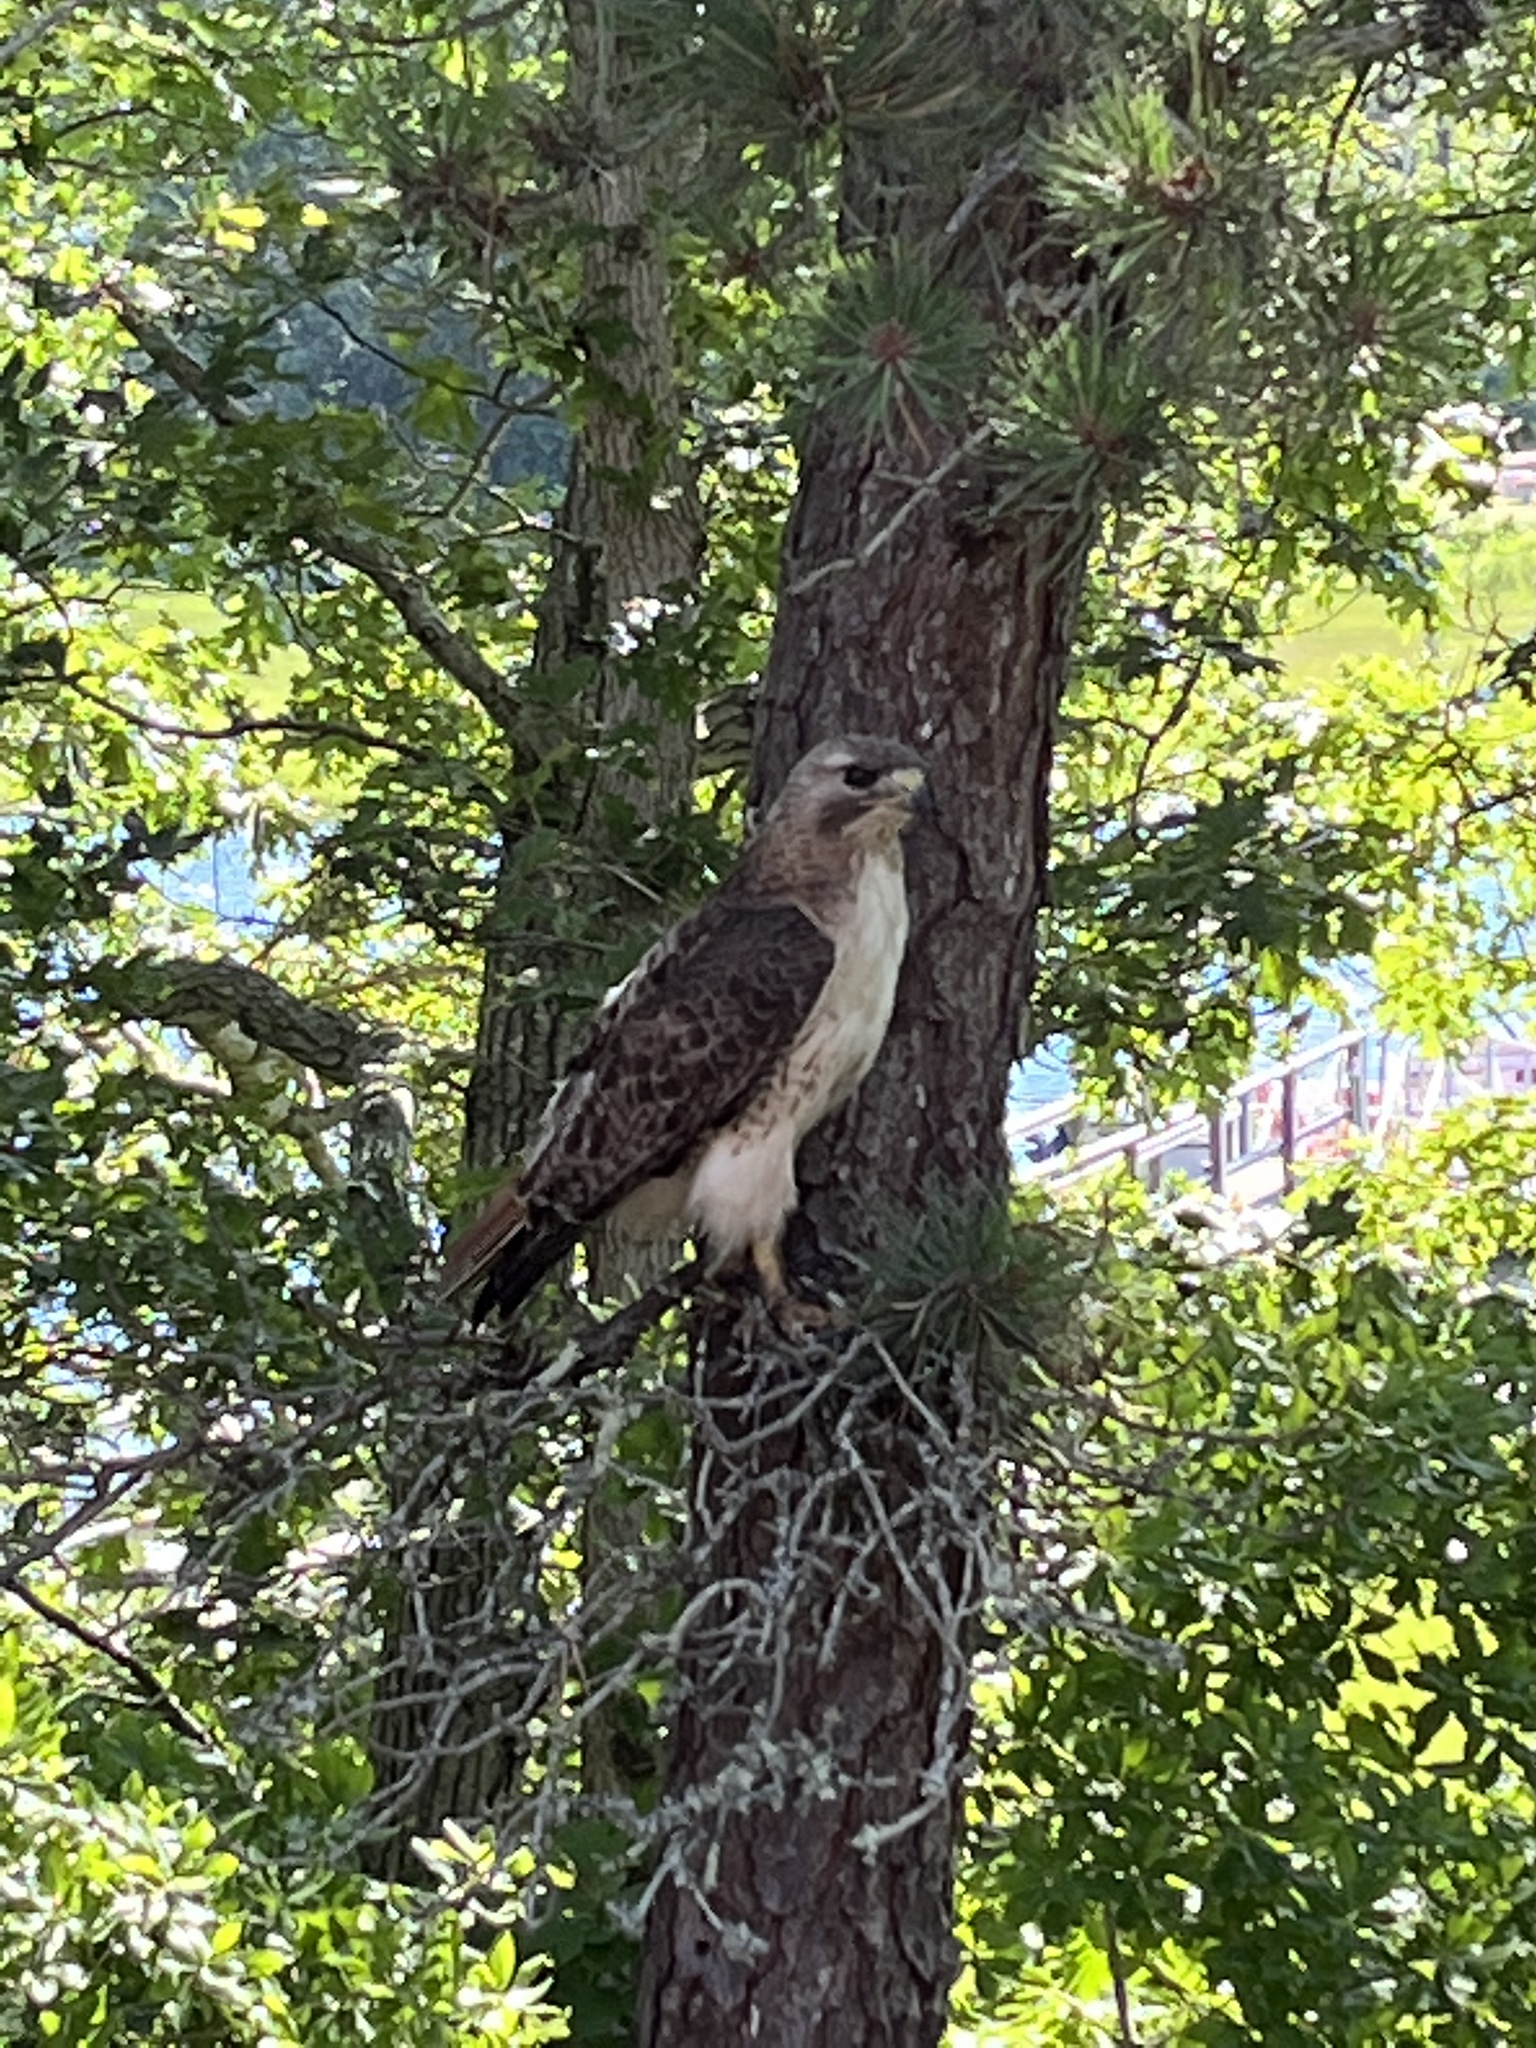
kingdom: Animalia
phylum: Chordata
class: Aves
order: Accipitriformes
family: Accipitridae
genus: Buteo
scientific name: Buteo jamaicensis
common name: Red-tailed hawk
